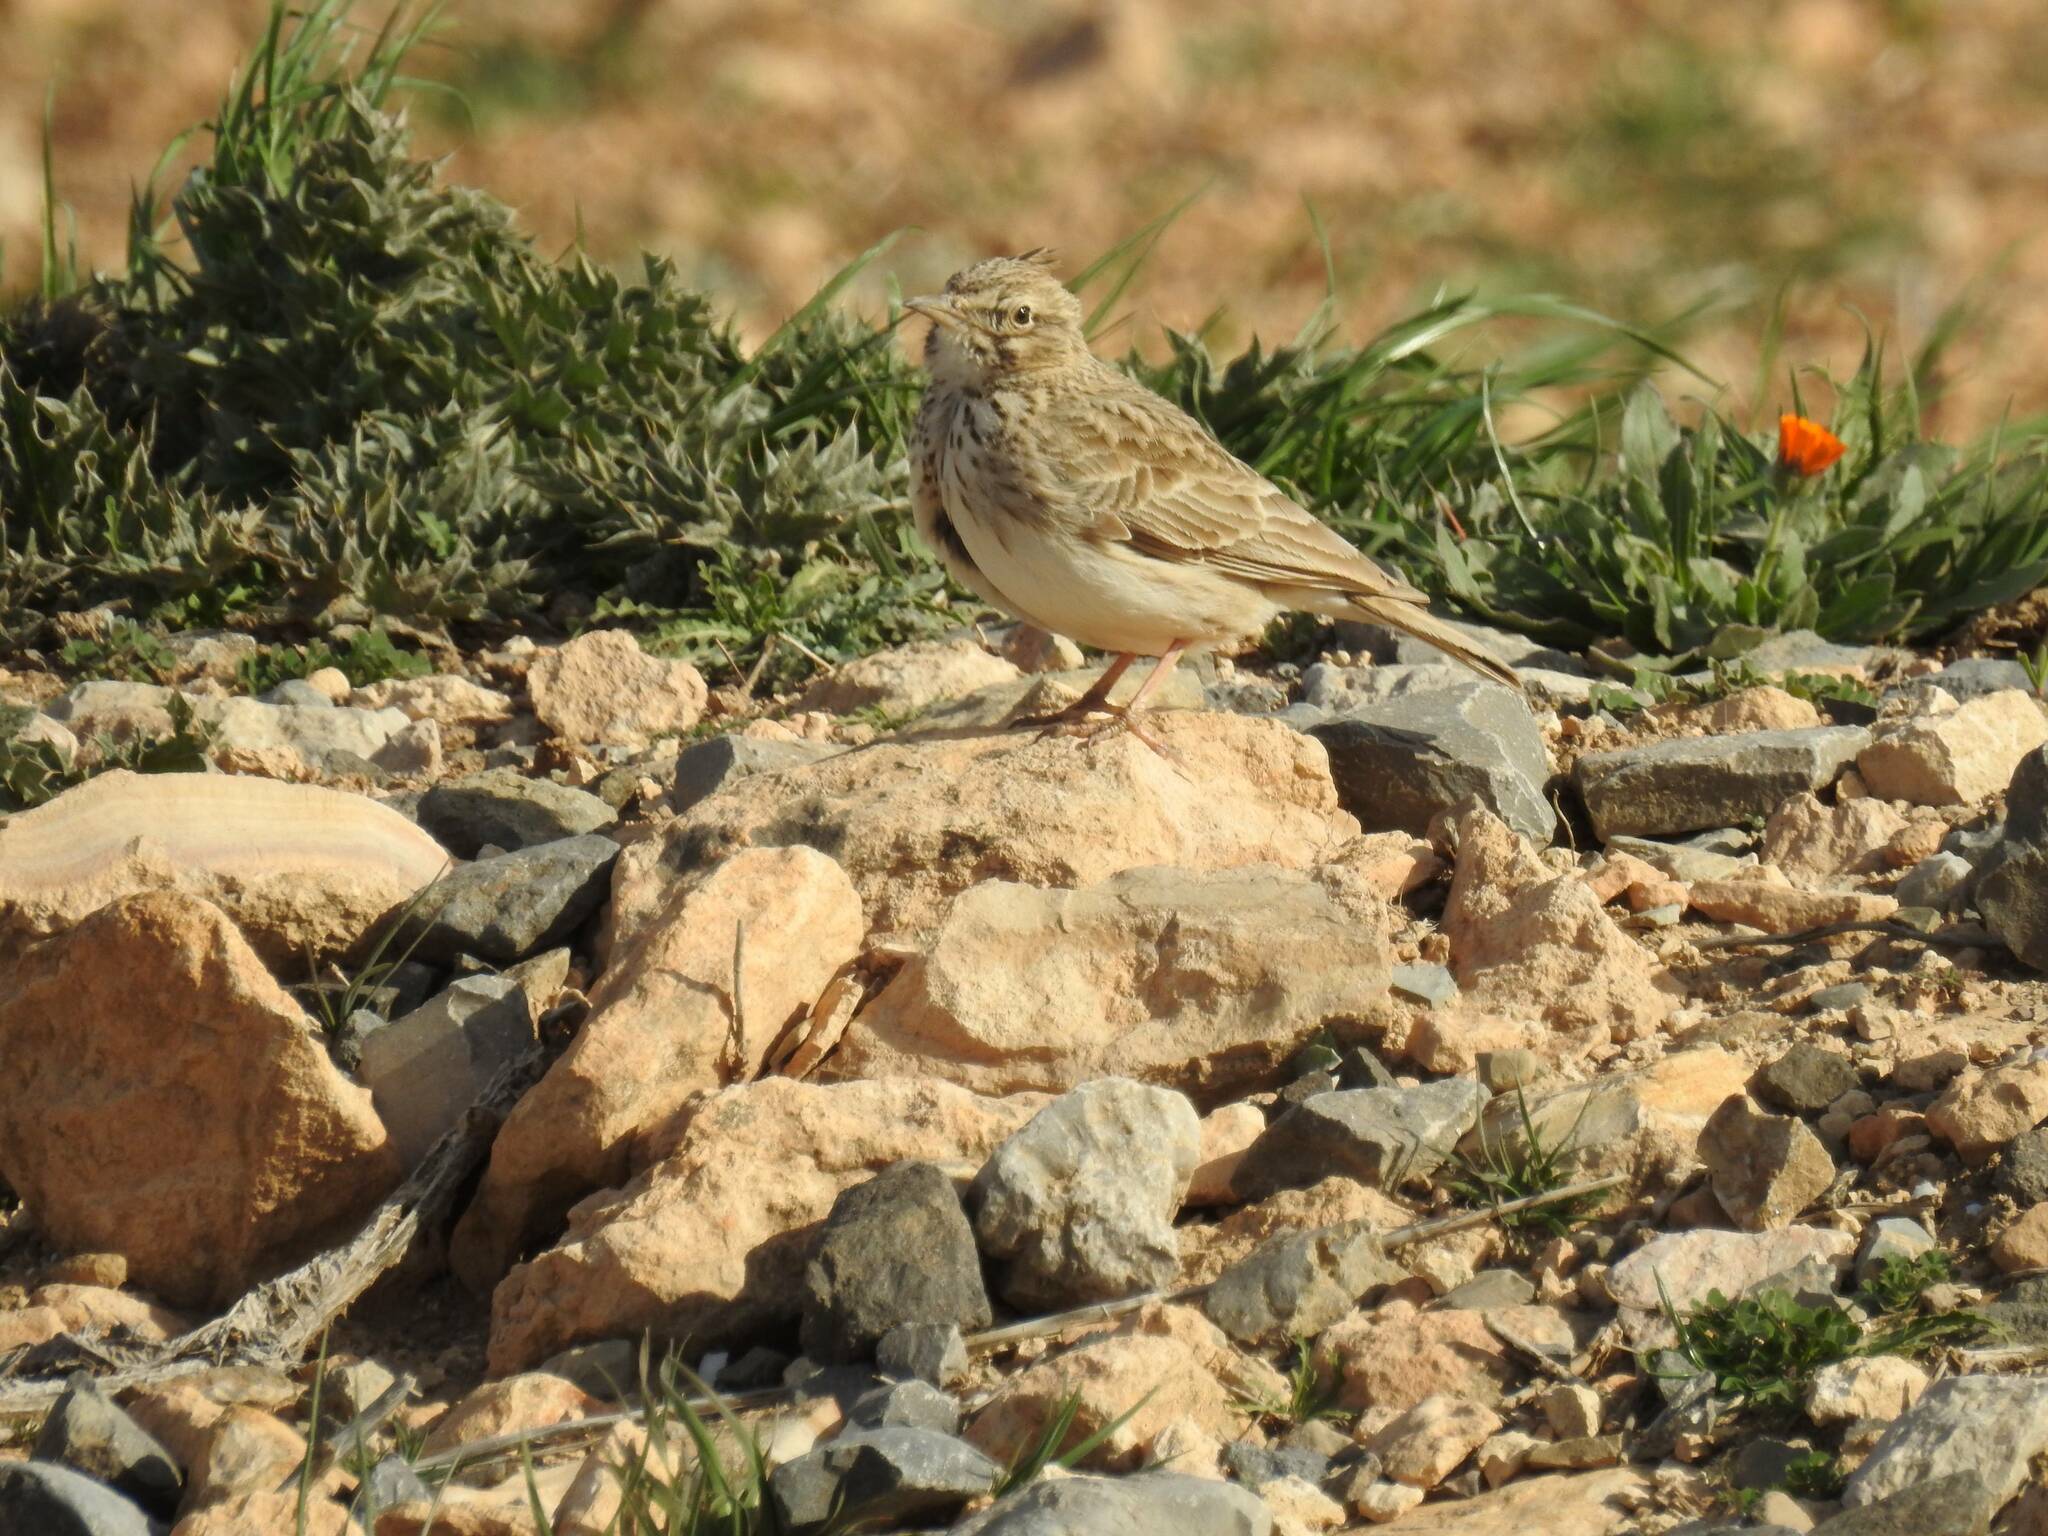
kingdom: Animalia
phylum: Chordata
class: Aves
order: Passeriformes
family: Alaudidae
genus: Galerida
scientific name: Galerida theklae
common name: Thekla lark
